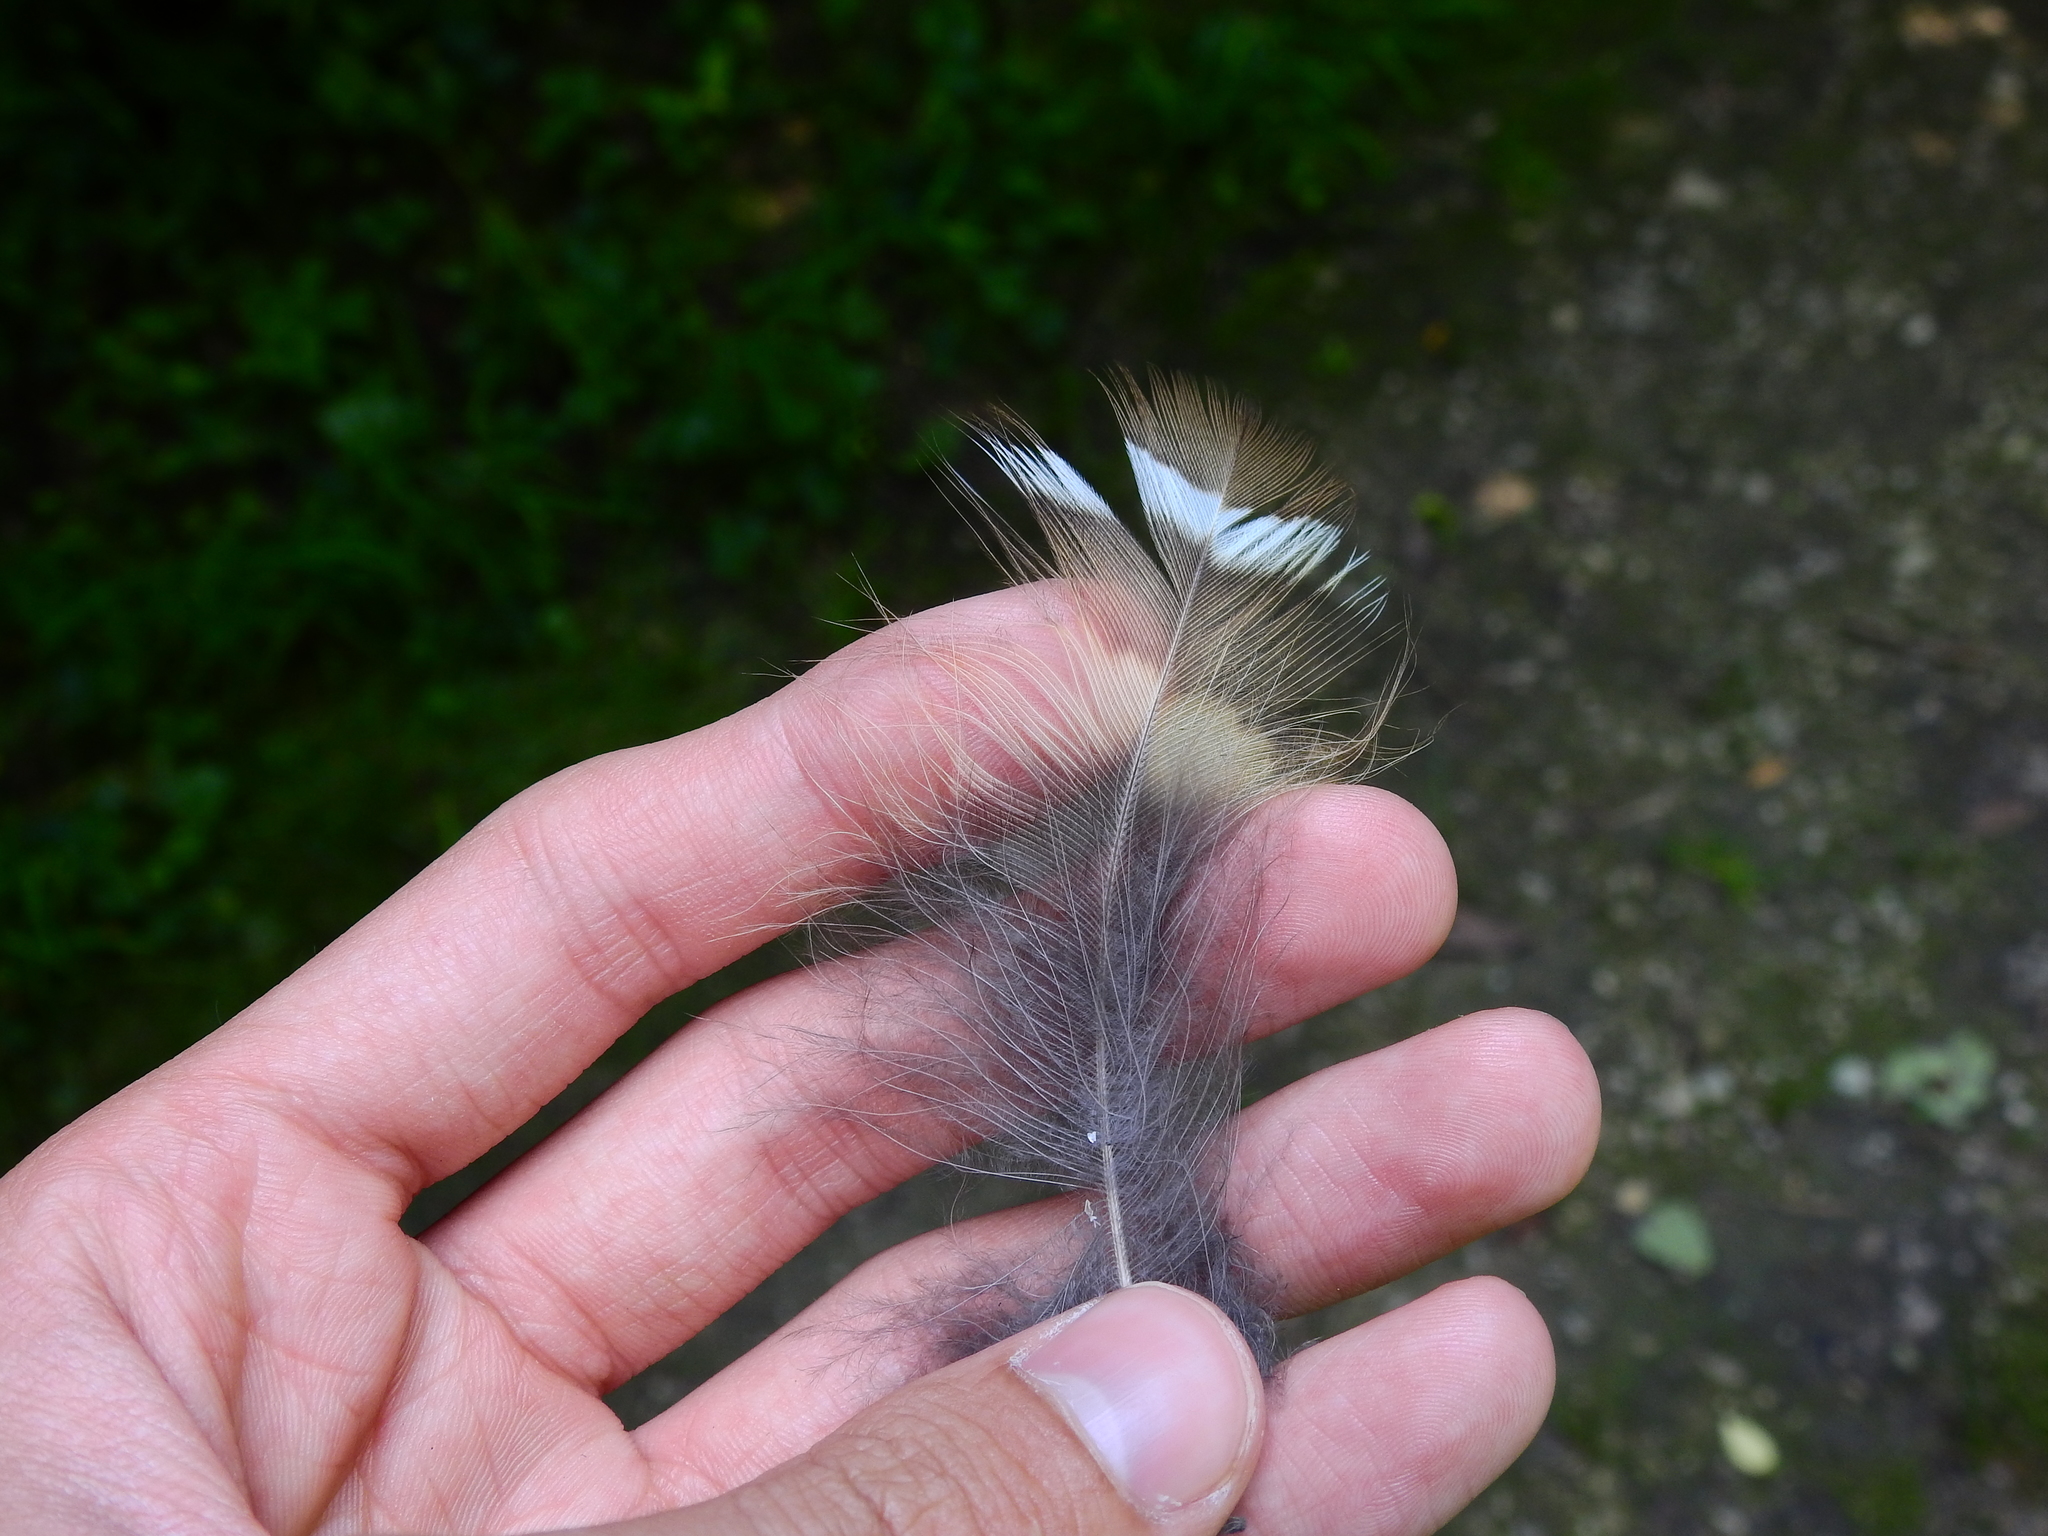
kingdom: Animalia
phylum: Chordata
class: Aves
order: Strigiformes
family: Strigidae
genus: Strix
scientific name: Strix varia
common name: Barred owl
